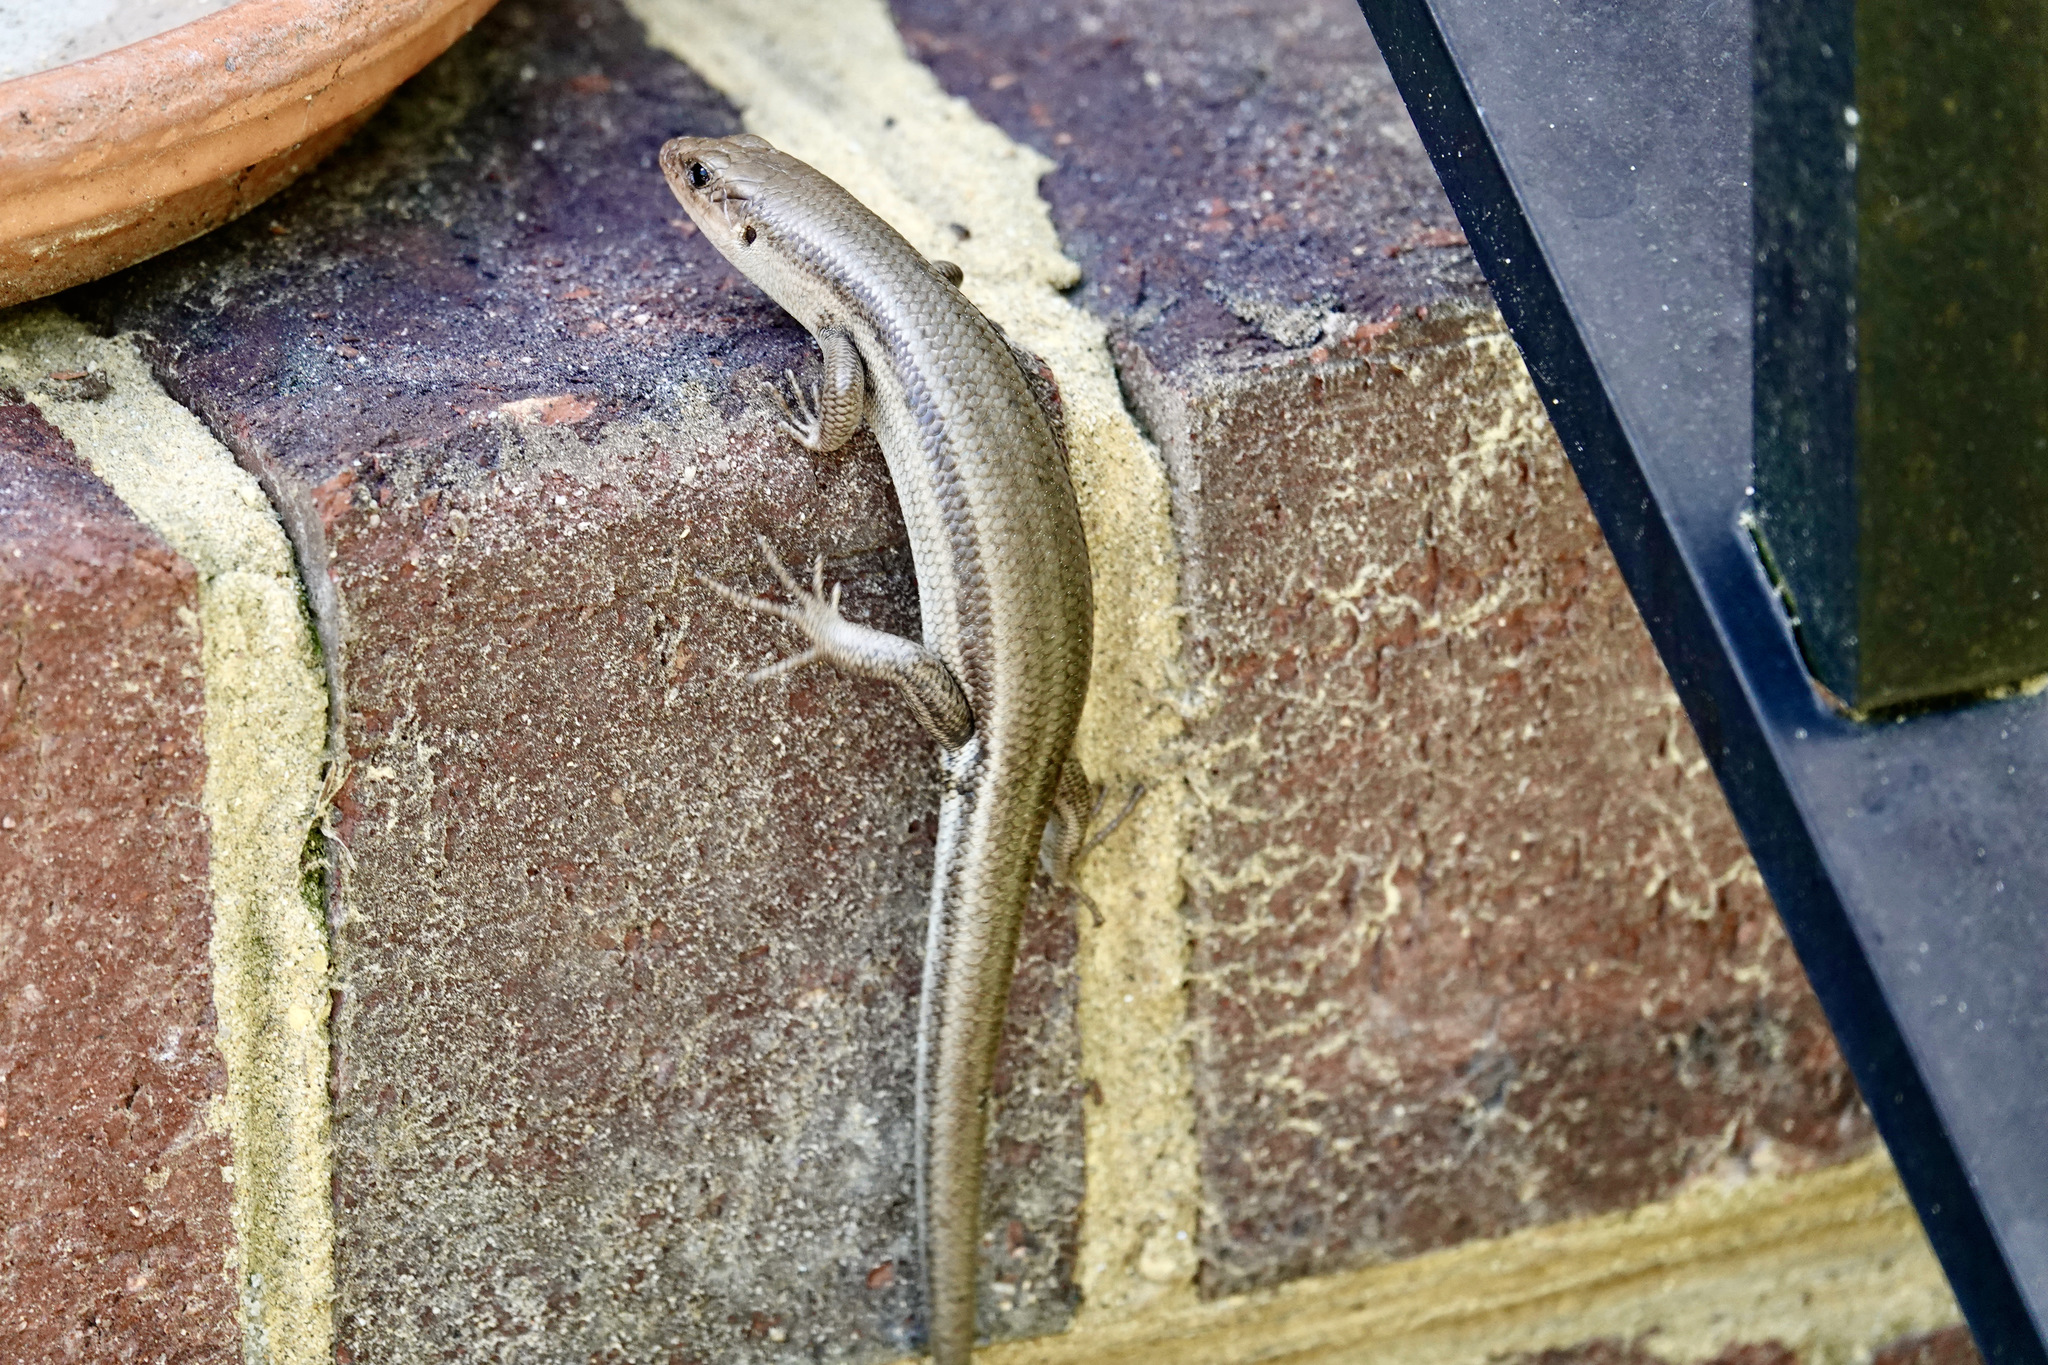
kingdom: Animalia
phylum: Chordata
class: Squamata
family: Scincidae
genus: Plestiodon
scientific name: Plestiodon fasciatus
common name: Five-lined skink
